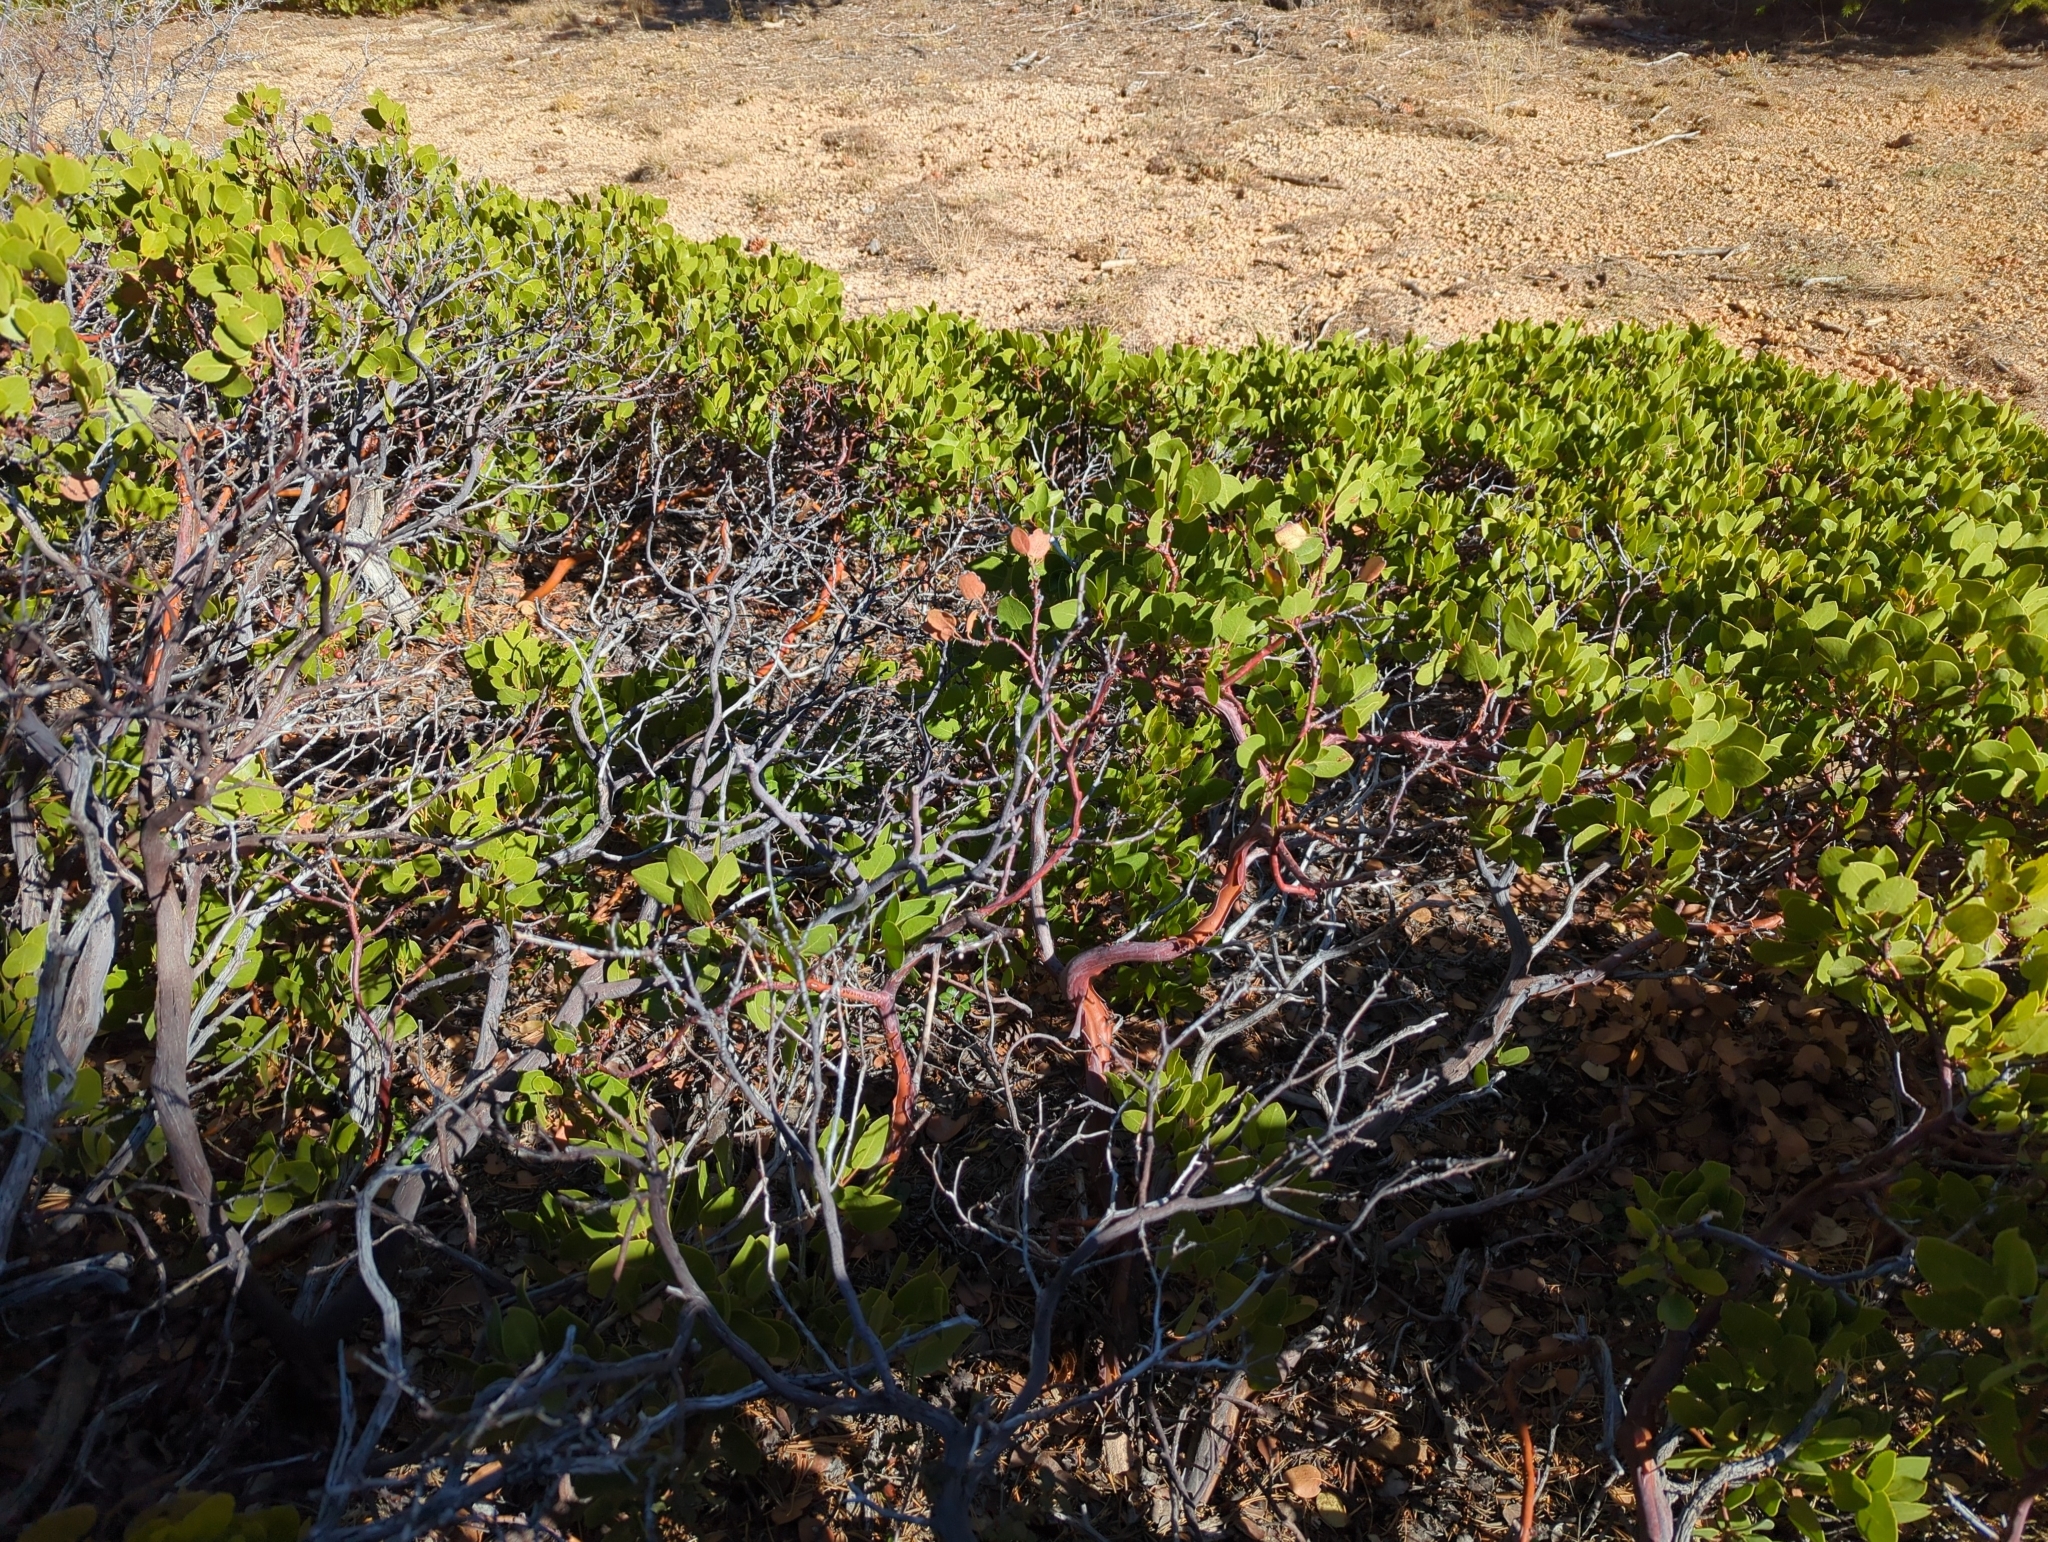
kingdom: Plantae
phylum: Tracheophyta
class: Magnoliopsida
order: Ericales
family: Ericaceae
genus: Arctostaphylos
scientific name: Arctostaphylos patula
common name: Green-leaf manzanita
